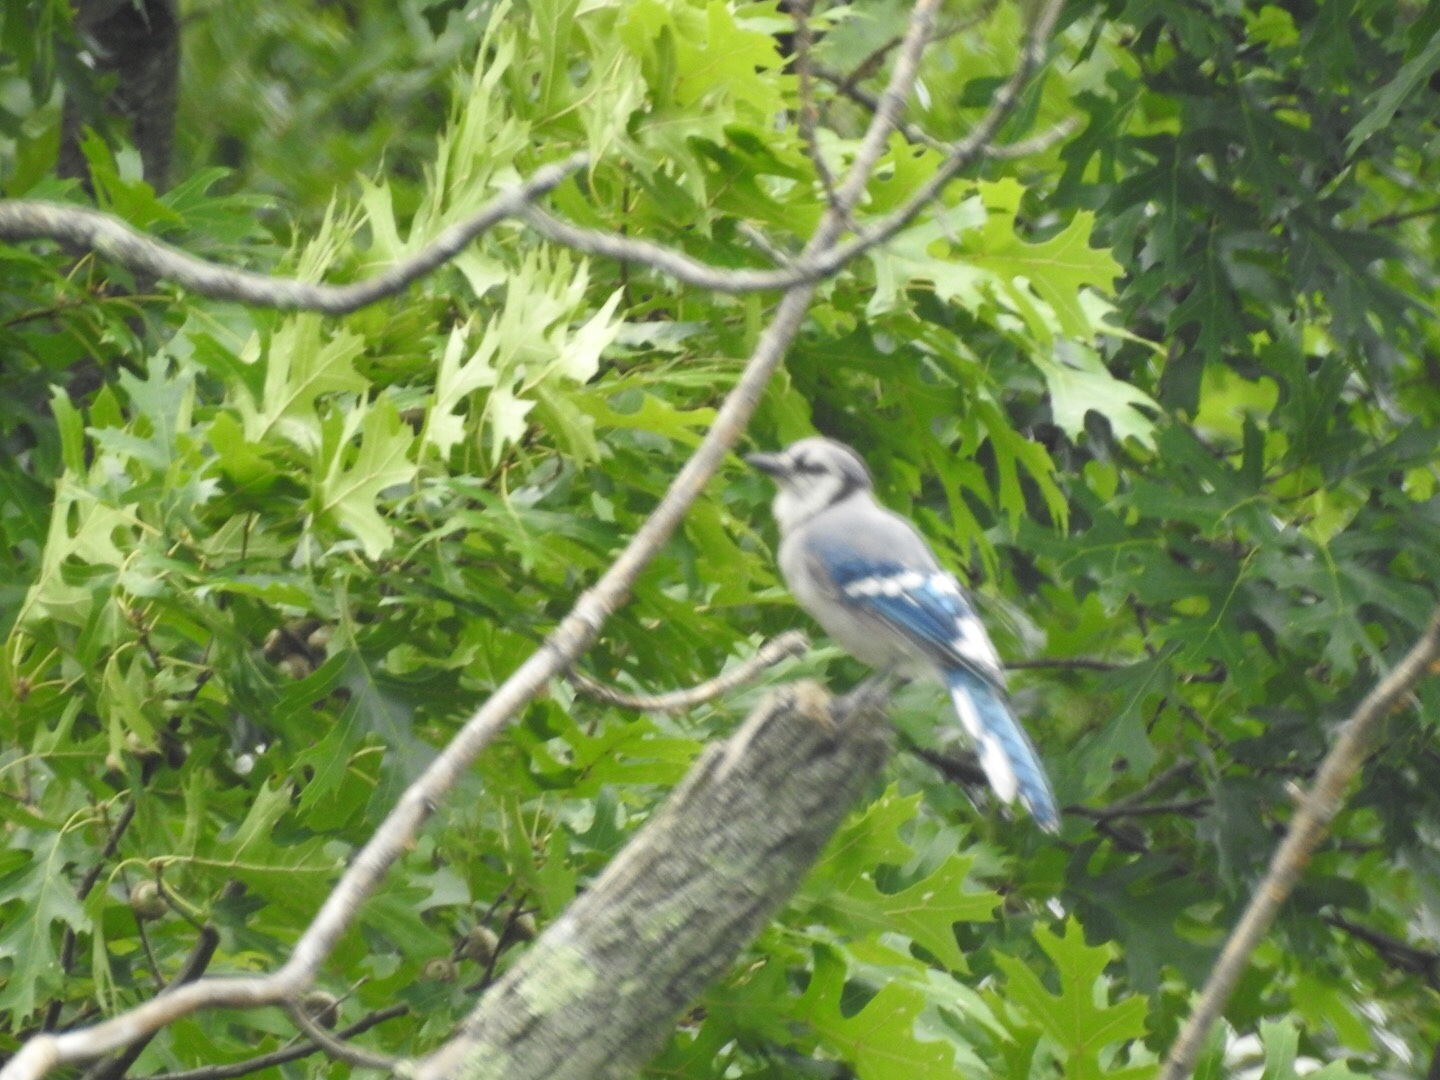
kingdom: Animalia
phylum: Chordata
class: Aves
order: Passeriformes
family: Corvidae
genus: Cyanocitta
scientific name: Cyanocitta cristata
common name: Blue jay
